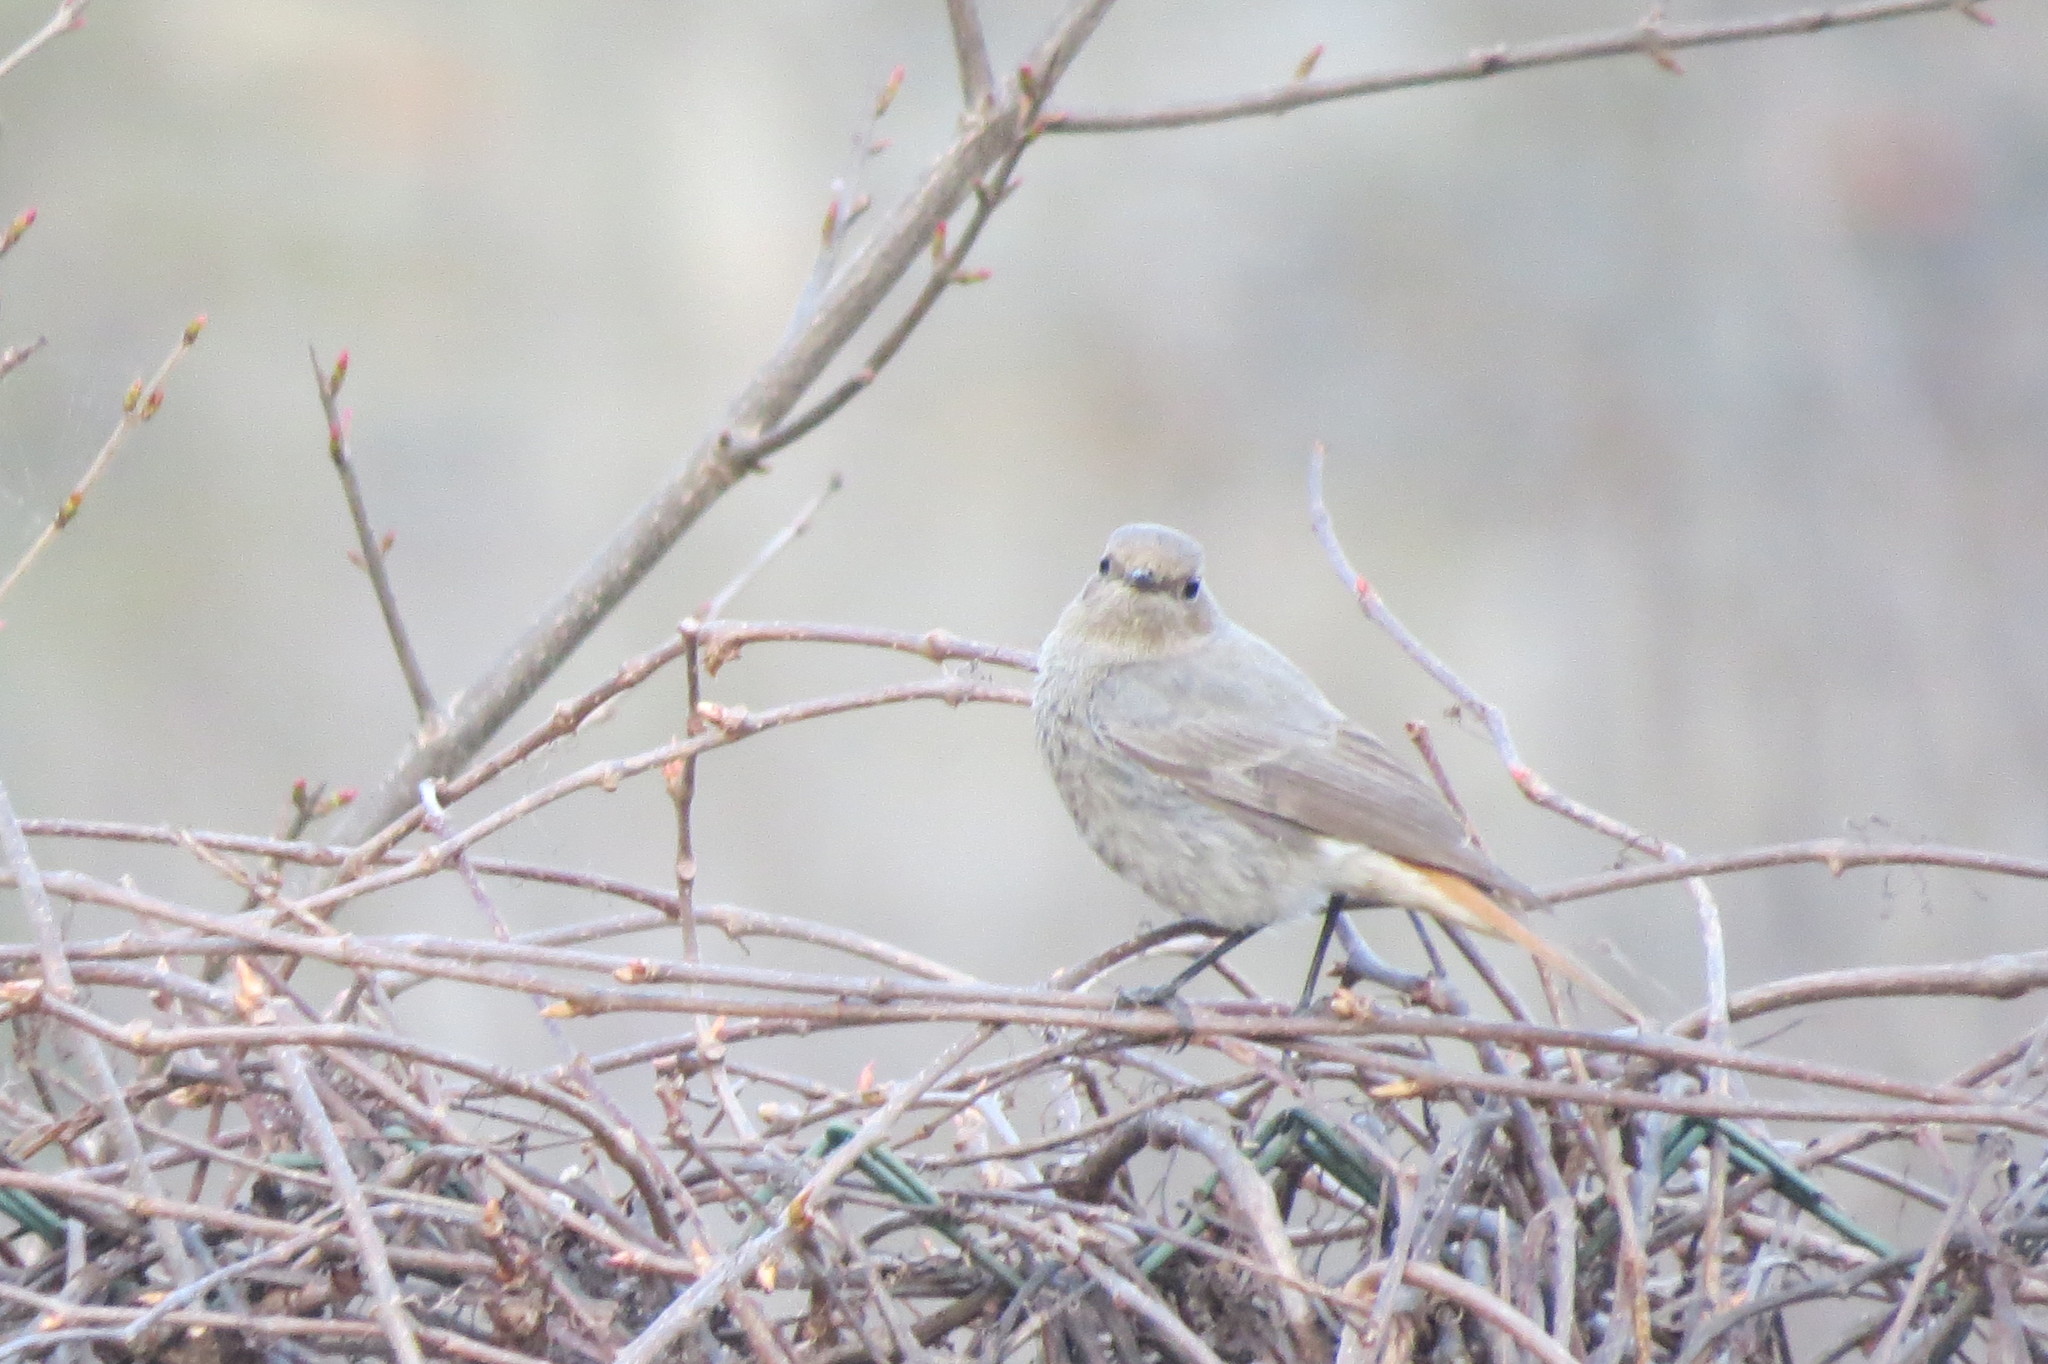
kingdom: Animalia
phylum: Chordata
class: Aves
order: Passeriformes
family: Muscicapidae
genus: Phoenicurus
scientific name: Phoenicurus ochruros
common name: Black redstart
